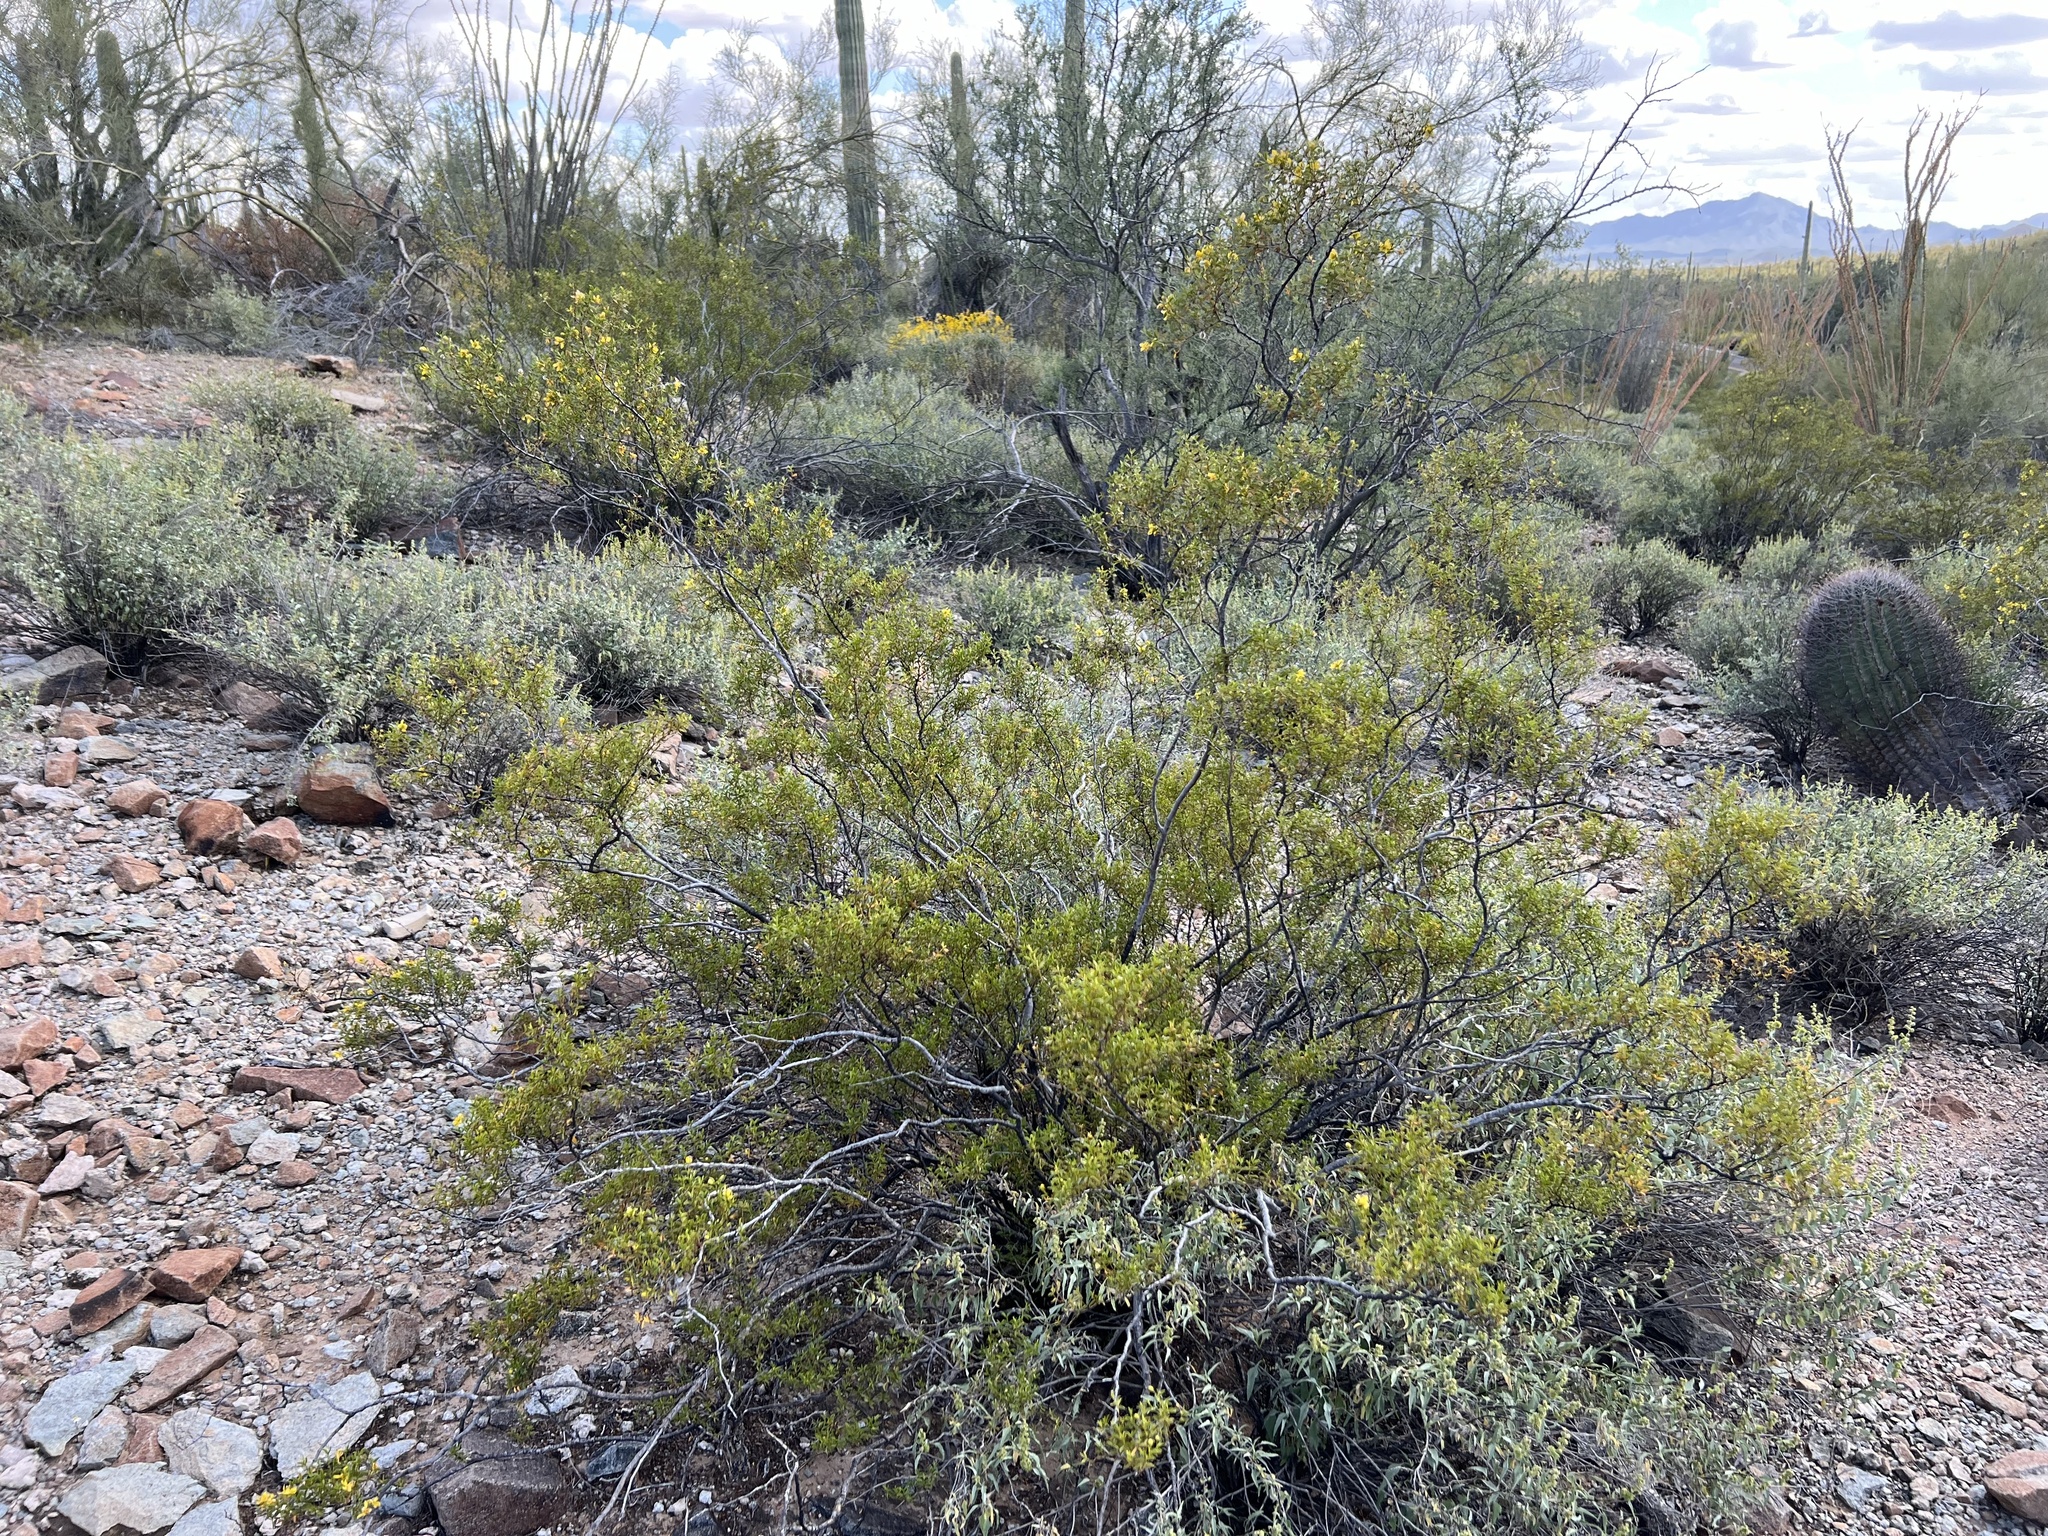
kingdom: Plantae
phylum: Tracheophyta
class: Magnoliopsida
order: Zygophyllales
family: Zygophyllaceae
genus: Larrea
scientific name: Larrea tridentata
